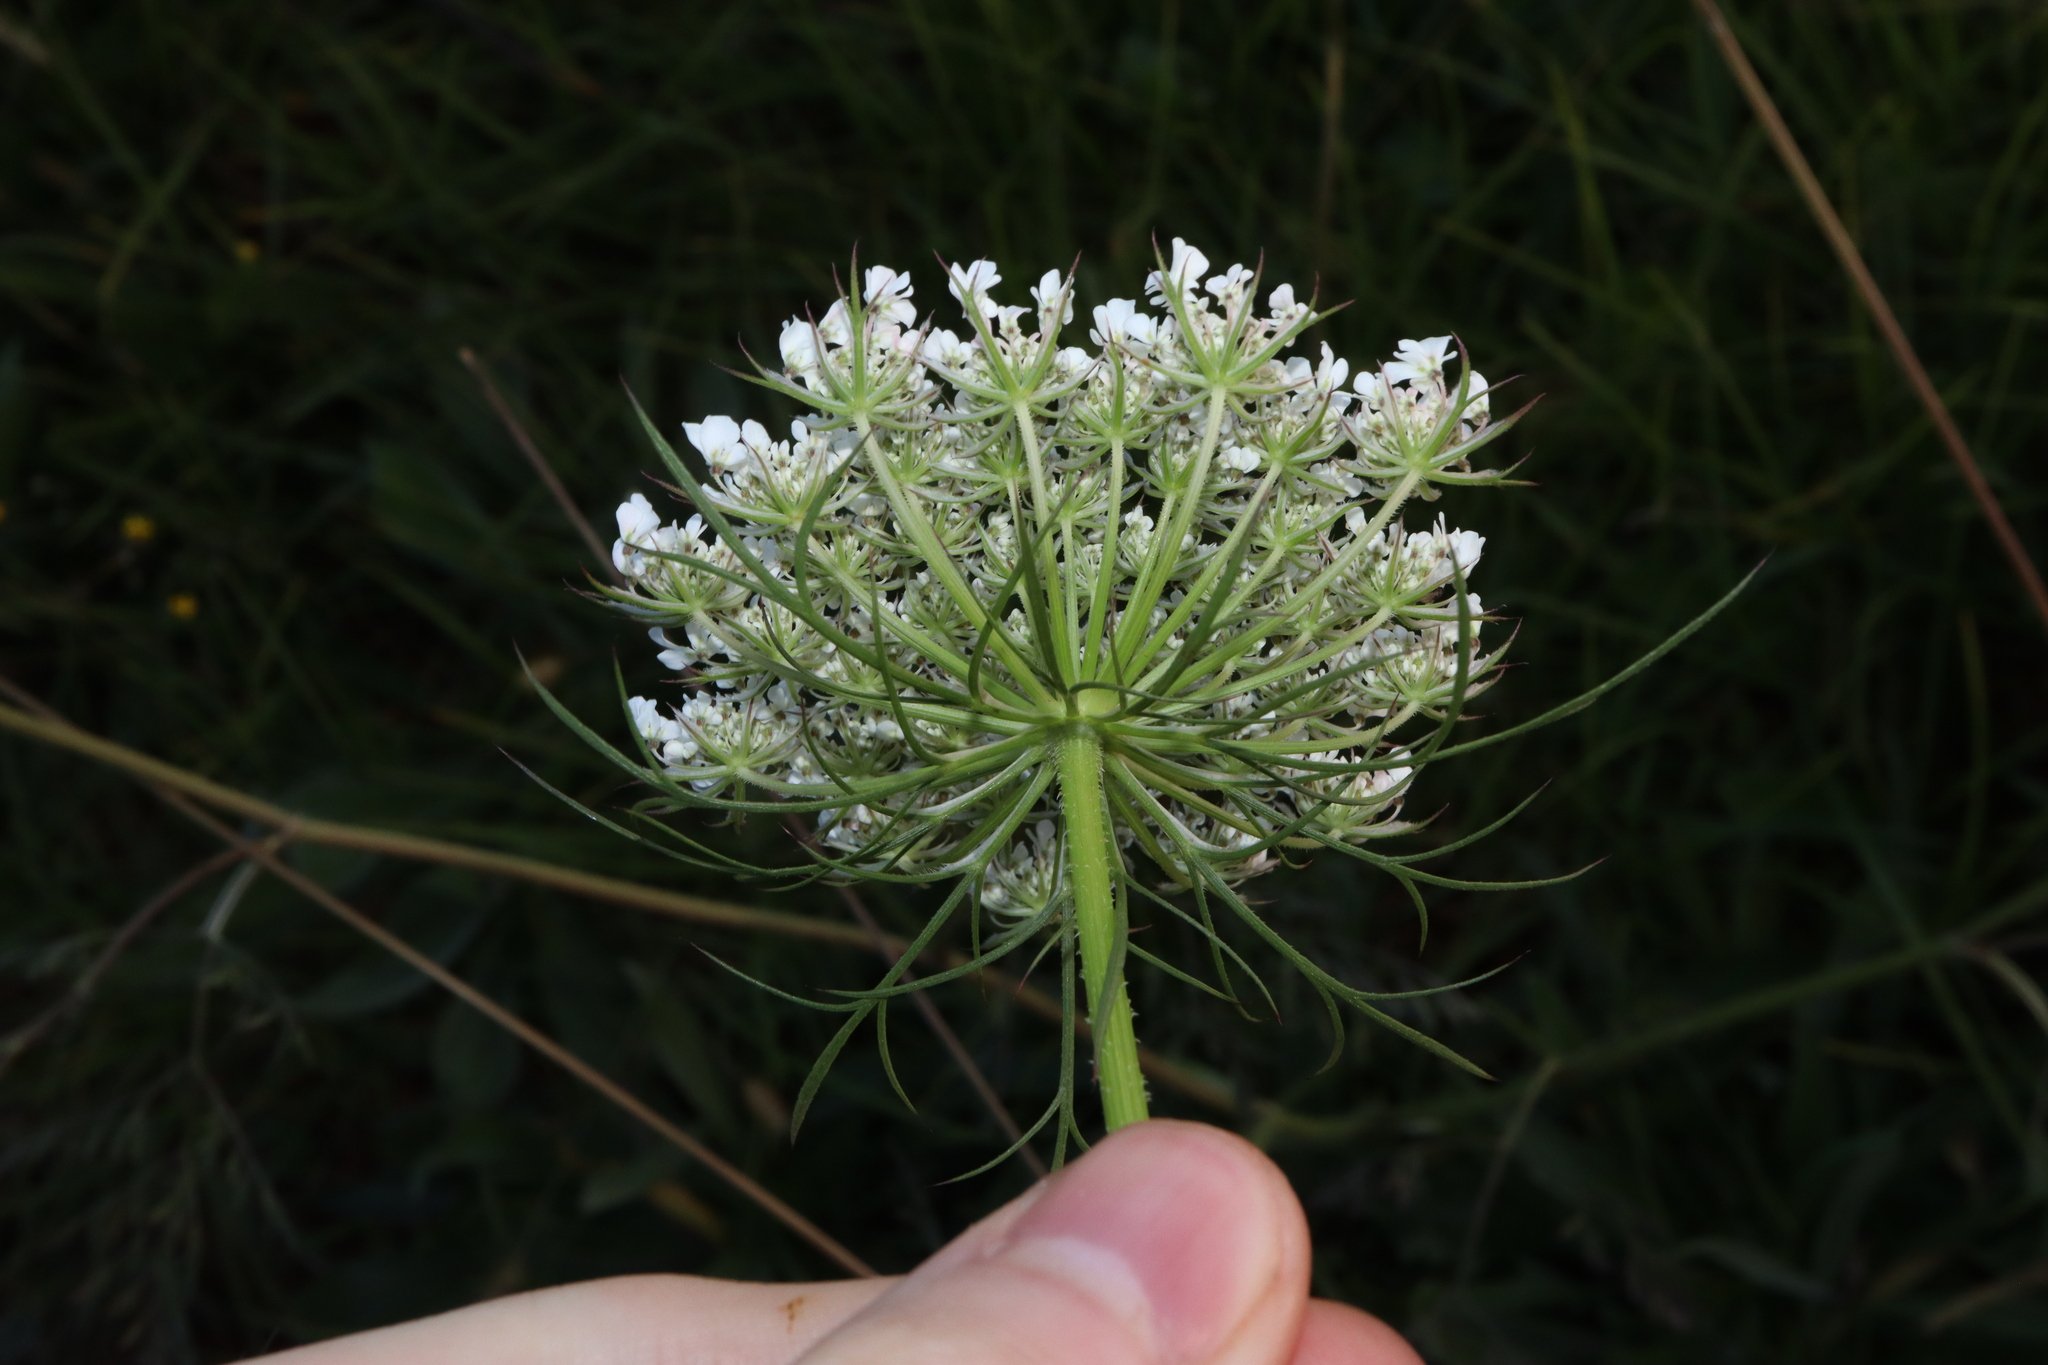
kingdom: Plantae
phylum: Tracheophyta
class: Magnoliopsida
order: Apiales
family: Apiaceae
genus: Daucus
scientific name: Daucus carota
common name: Wild carrot
